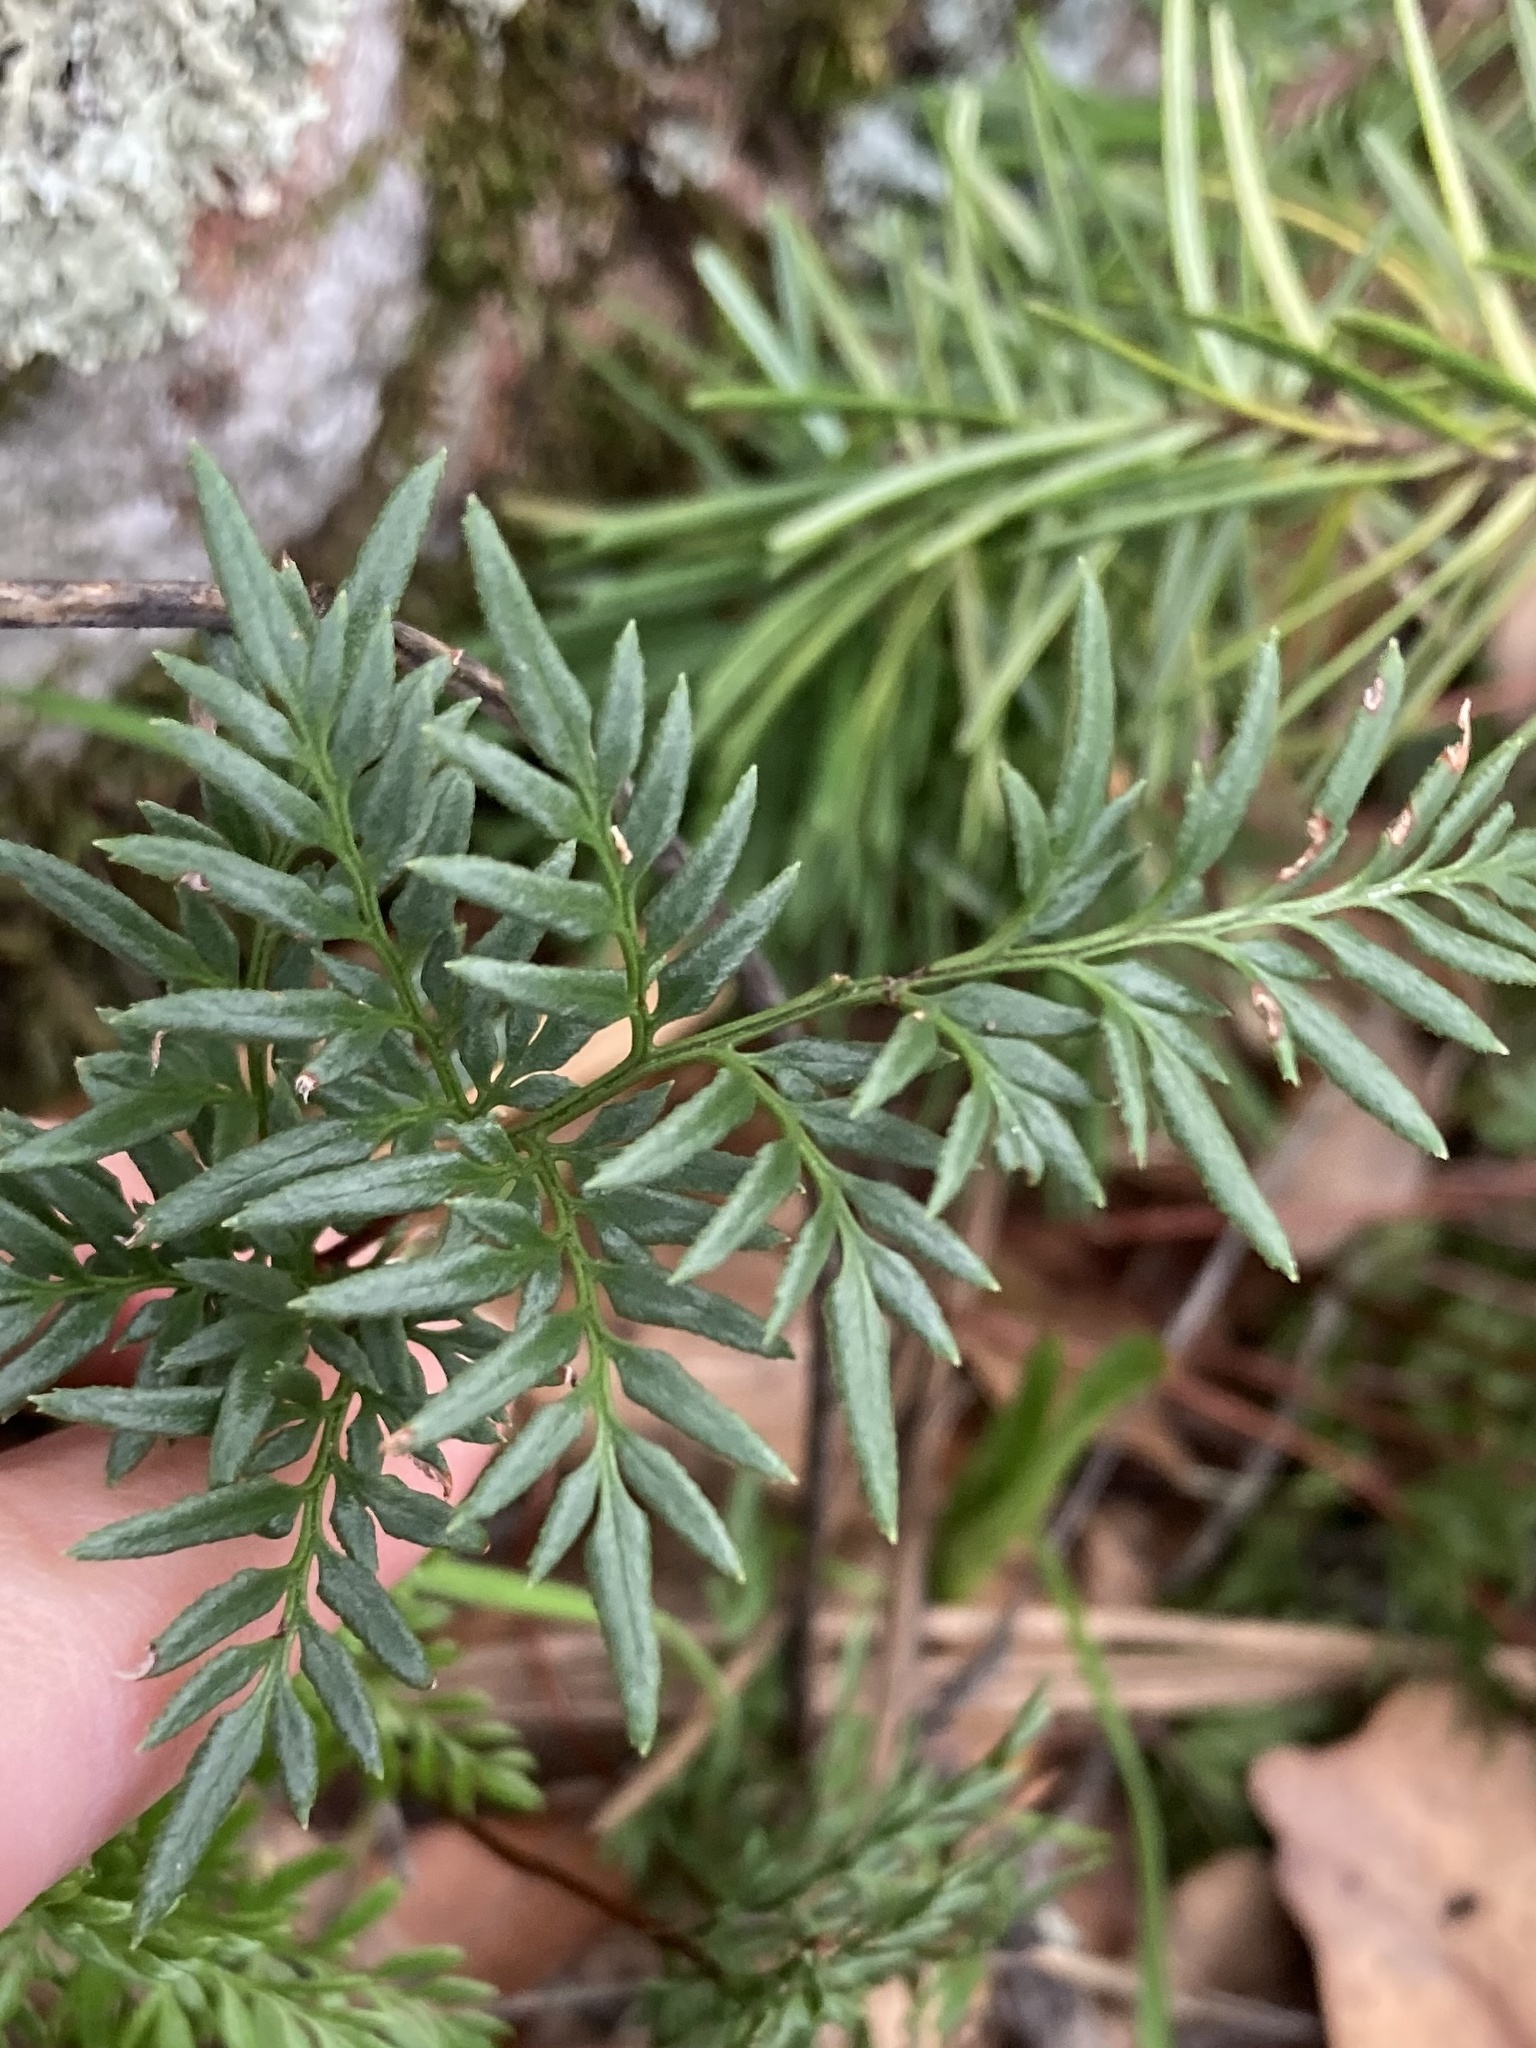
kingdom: Plantae
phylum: Tracheophyta
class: Polypodiopsida
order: Polypodiales
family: Pteridaceae
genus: Aspidotis
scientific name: Aspidotis densa
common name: Indian's dream
